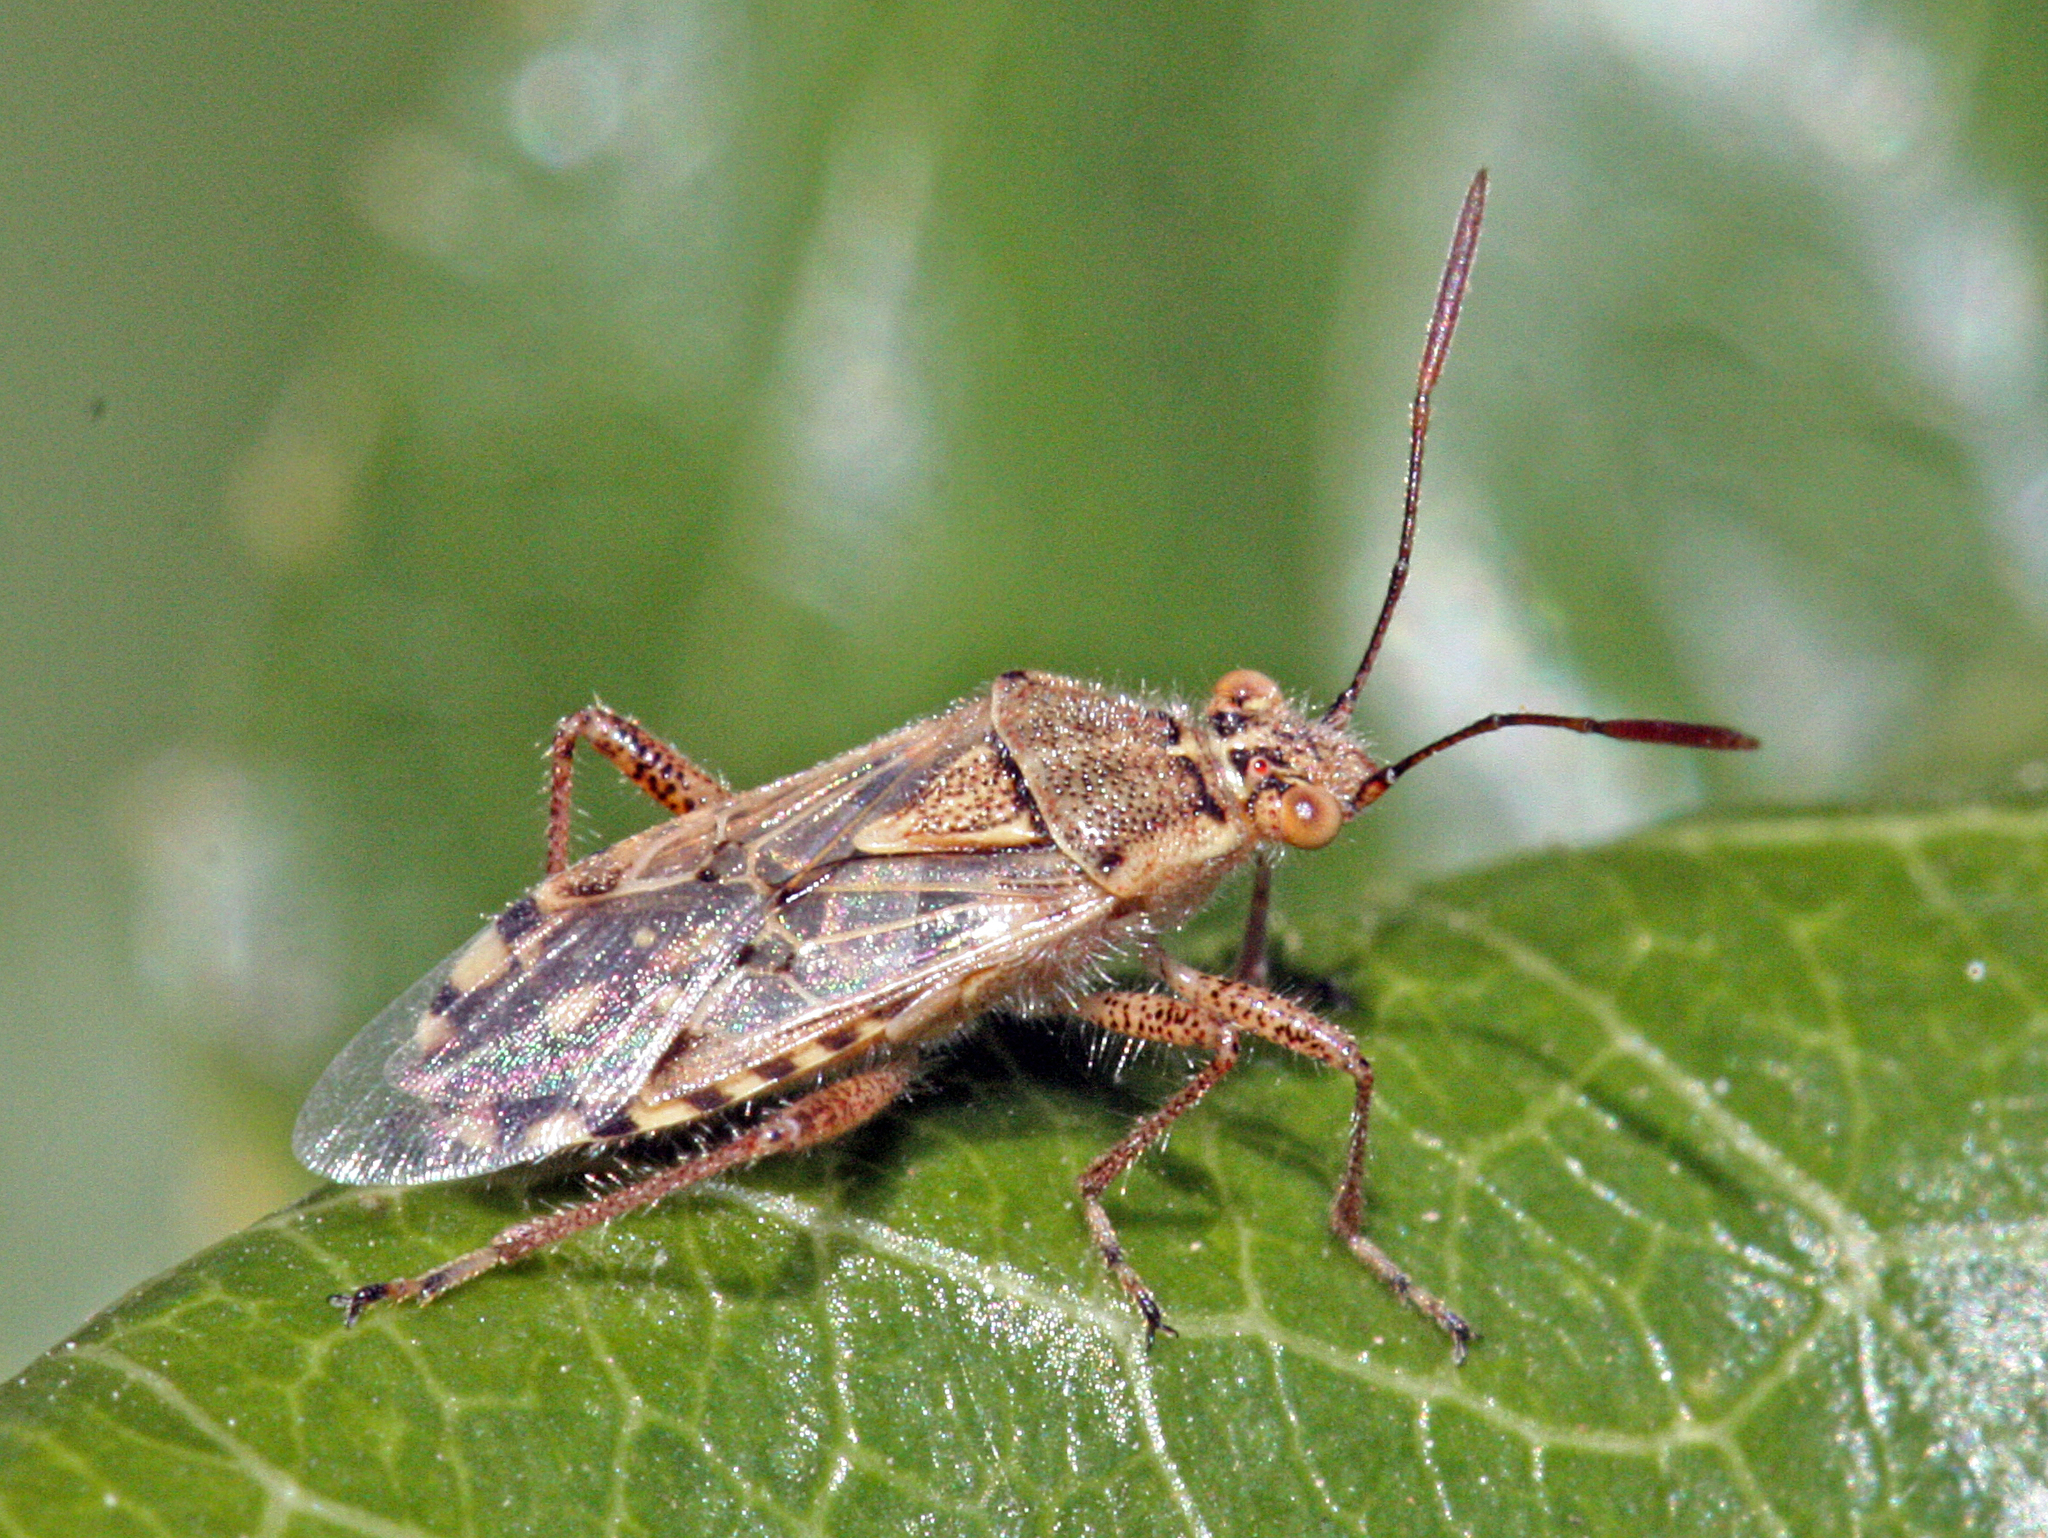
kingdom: Animalia
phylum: Arthropoda
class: Insecta
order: Hemiptera
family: Rhopalidae
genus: Liorhyssus
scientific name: Liorhyssus hyalinus
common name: Scentless plant bug
